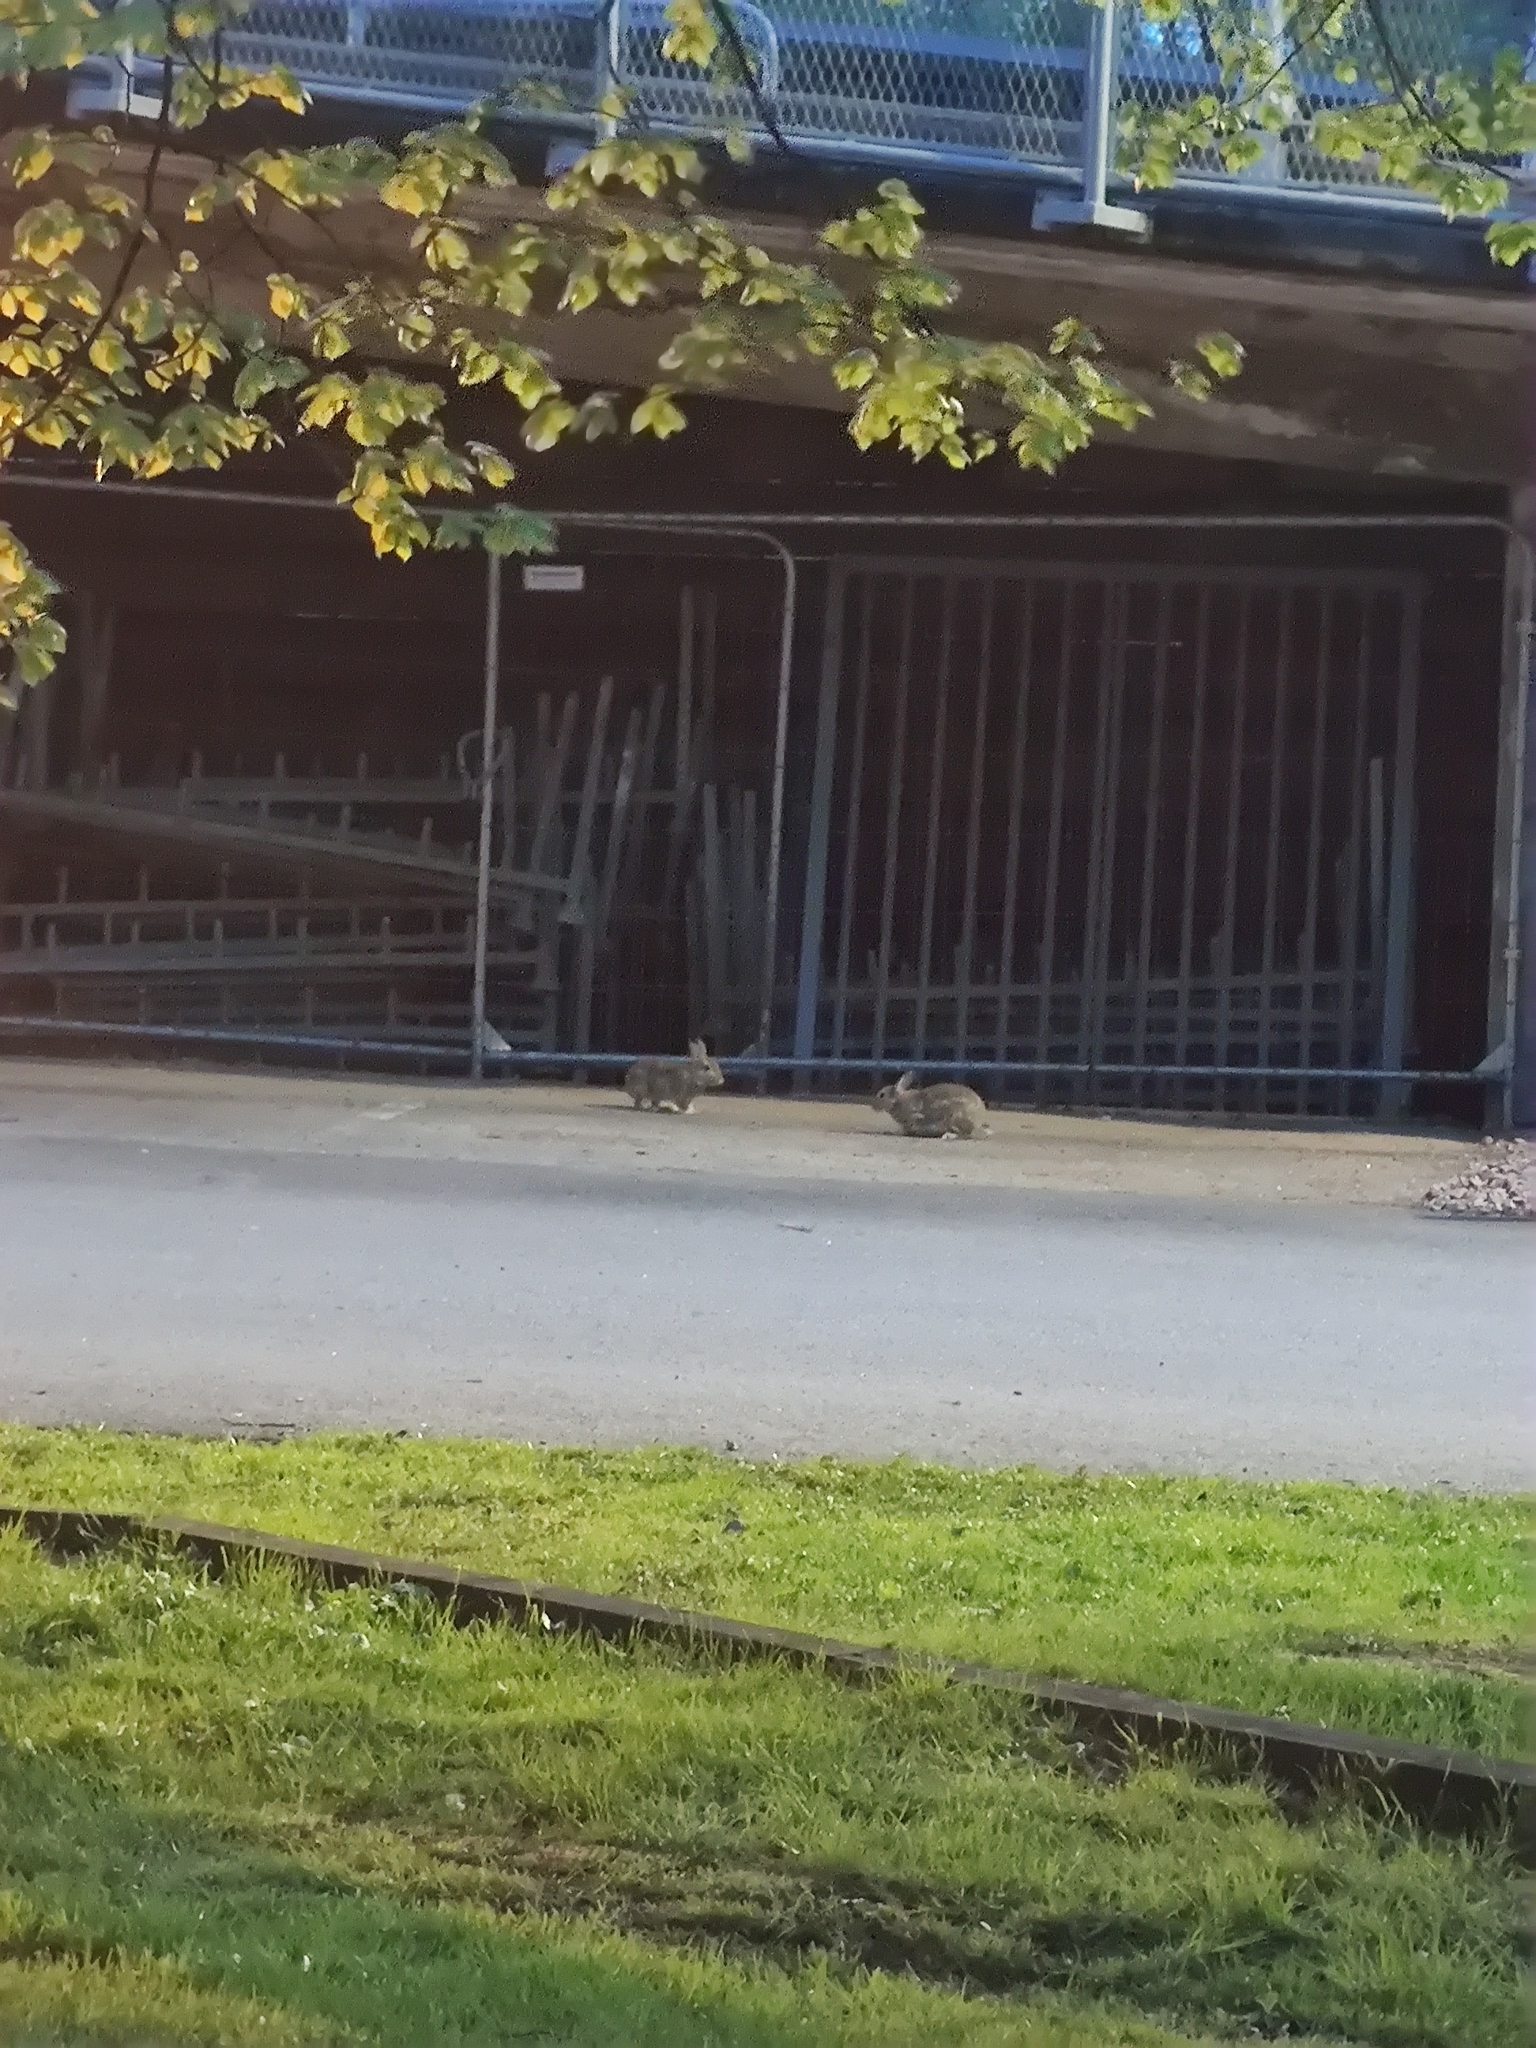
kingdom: Animalia
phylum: Chordata
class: Mammalia
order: Lagomorpha
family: Leporidae
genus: Oryctolagus
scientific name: Oryctolagus cuniculus
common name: European rabbit
